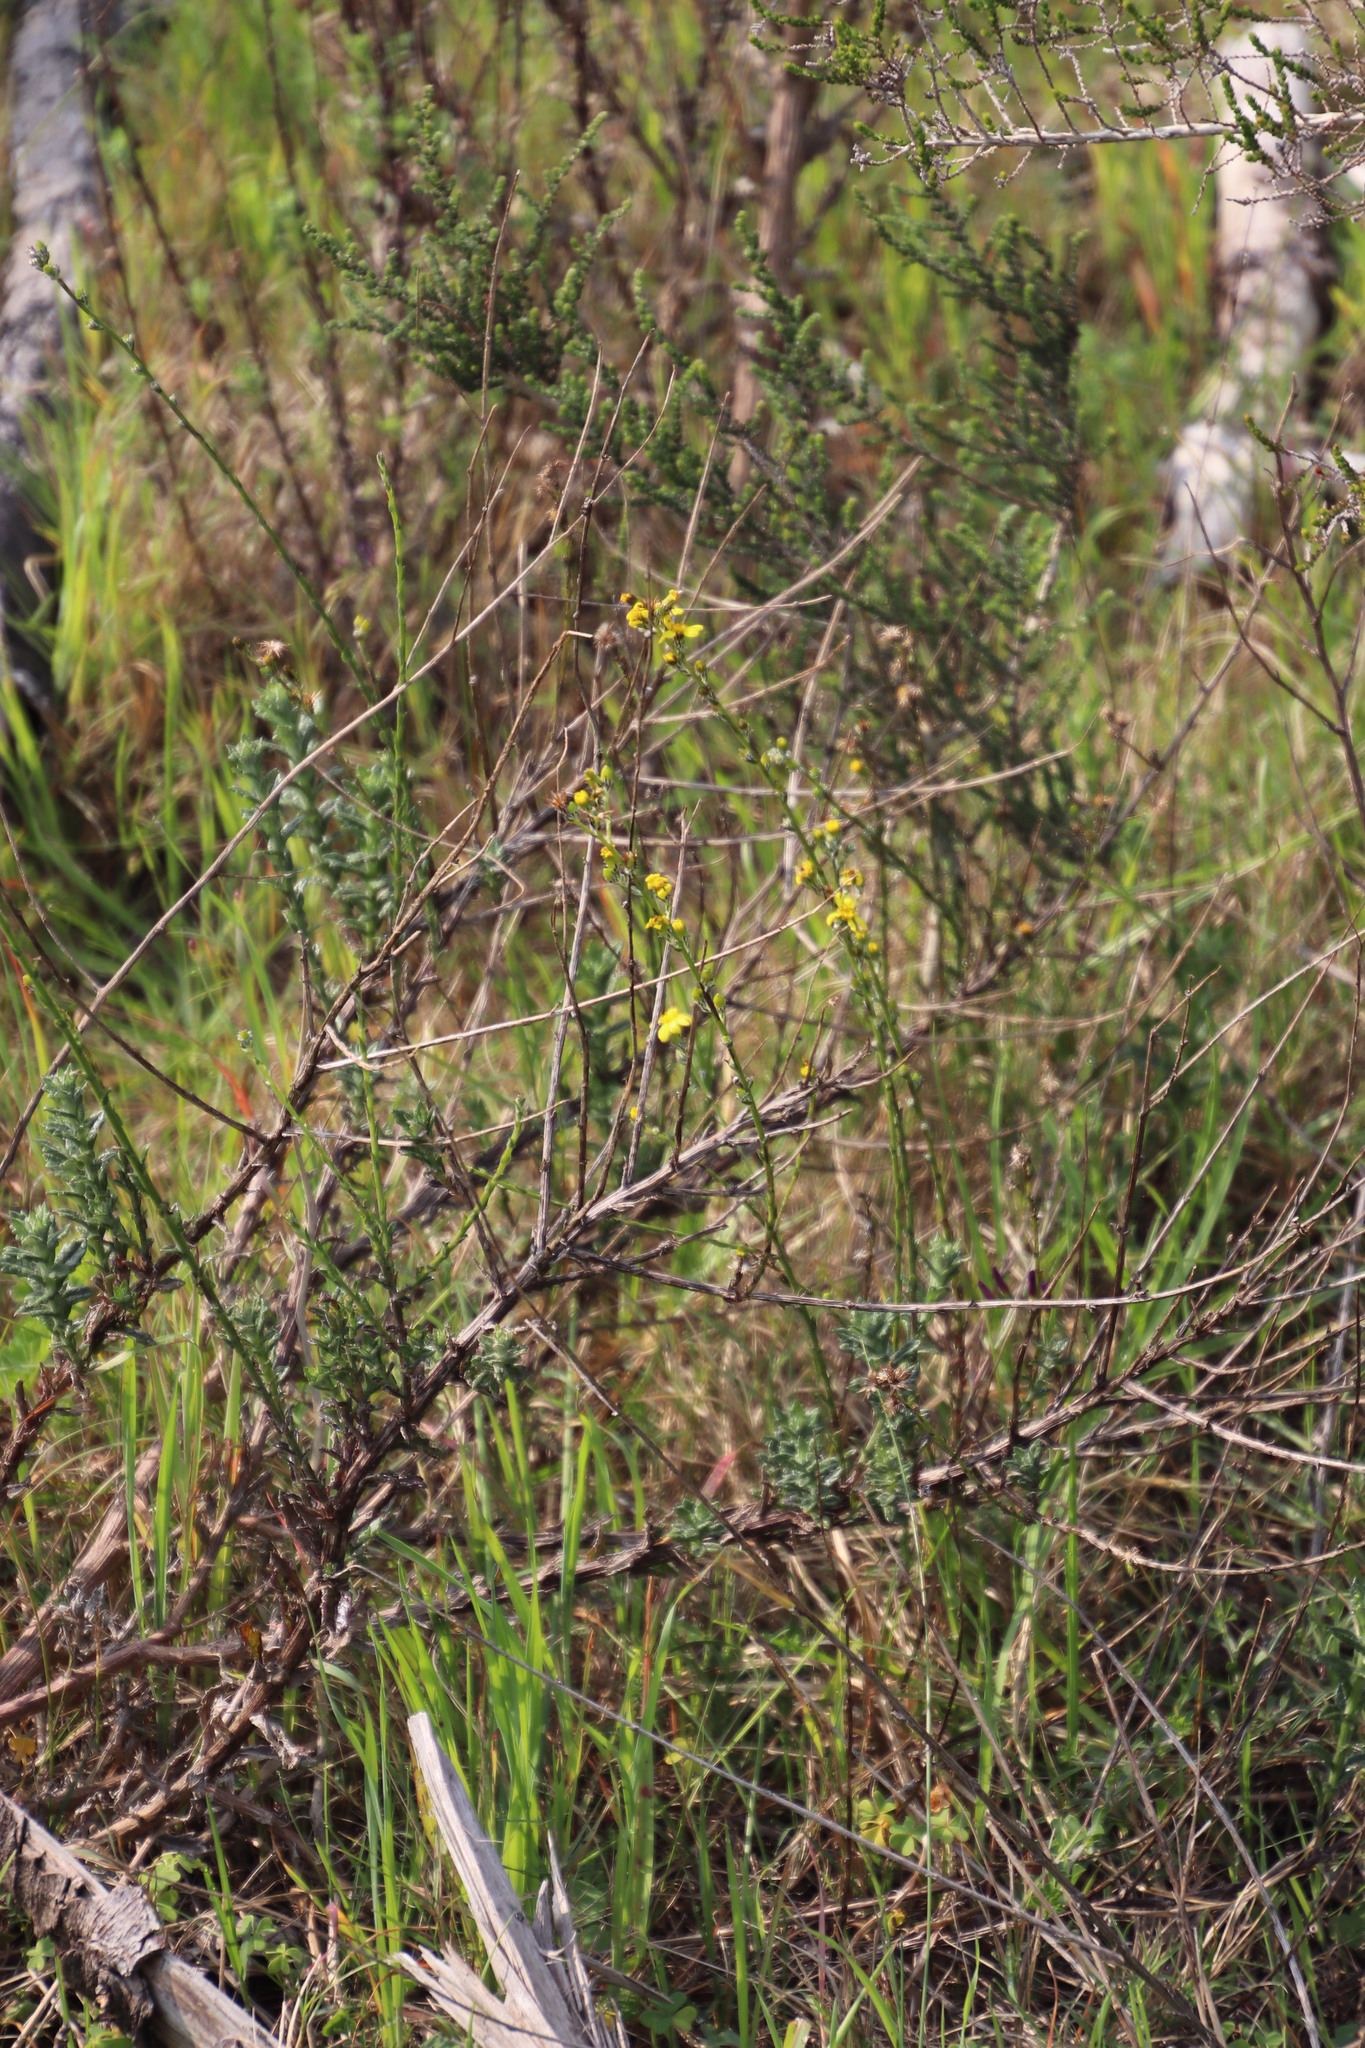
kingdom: Plantae
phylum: Tracheophyta
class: Magnoliopsida
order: Asterales
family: Asteraceae
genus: Senecio
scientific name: Senecio pubigerus
